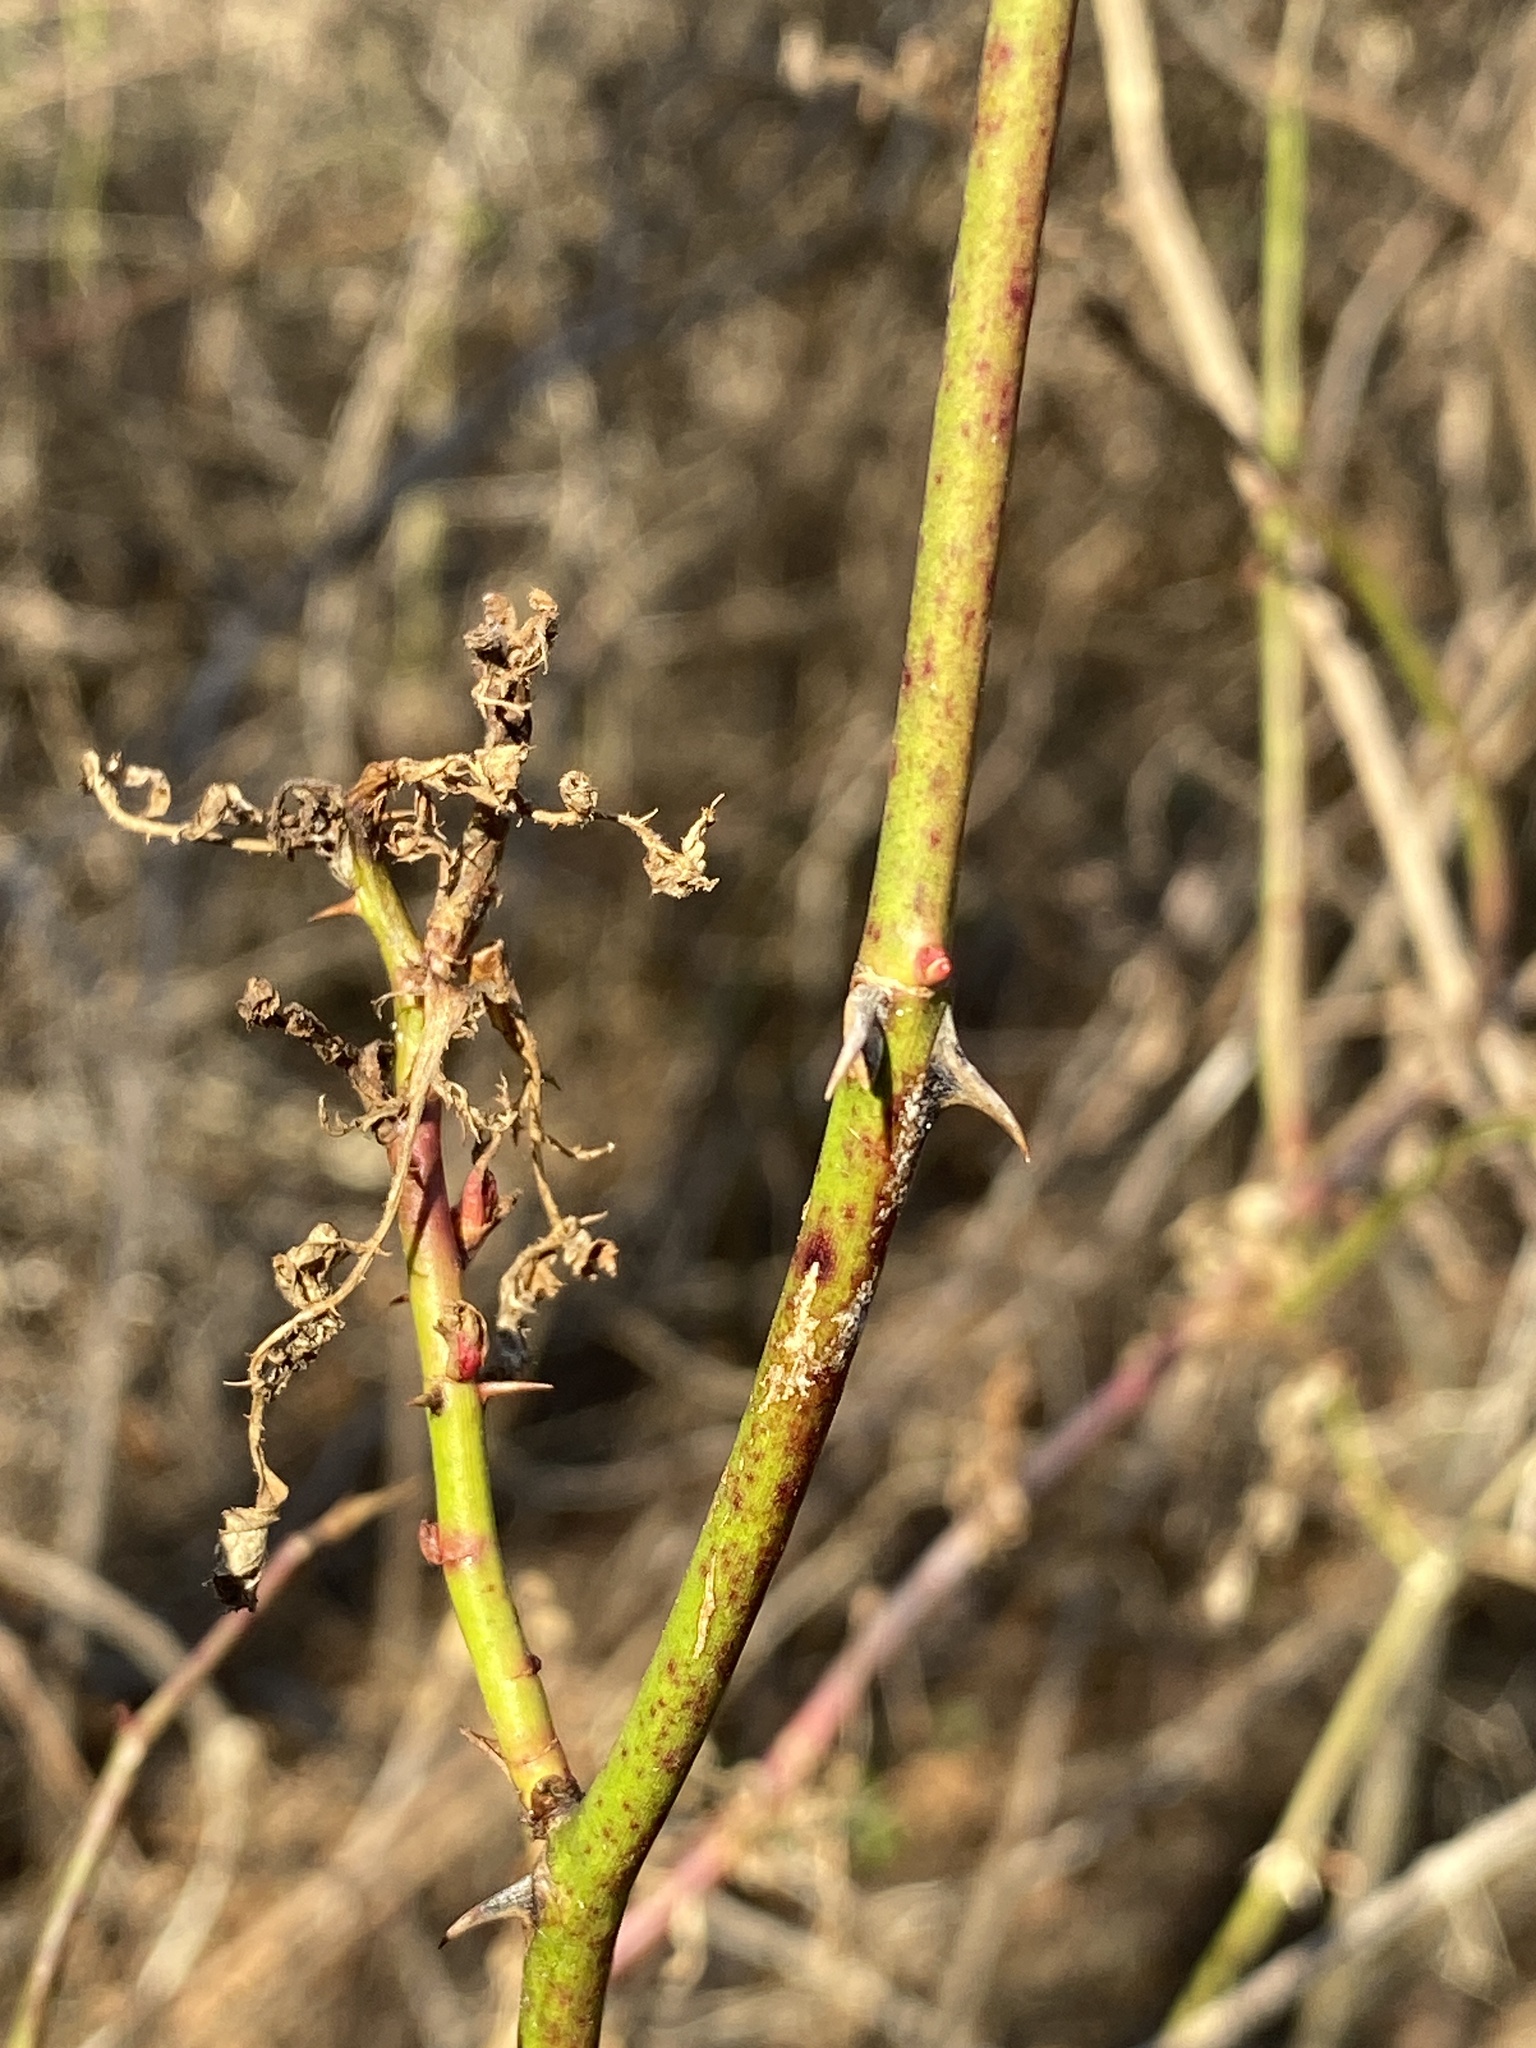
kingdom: Viruses
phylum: Negarnaviricota
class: Ellioviricetes
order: Bunyavirales
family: Fimoviridae
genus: Emaravirus
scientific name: Emaravirus rosae
